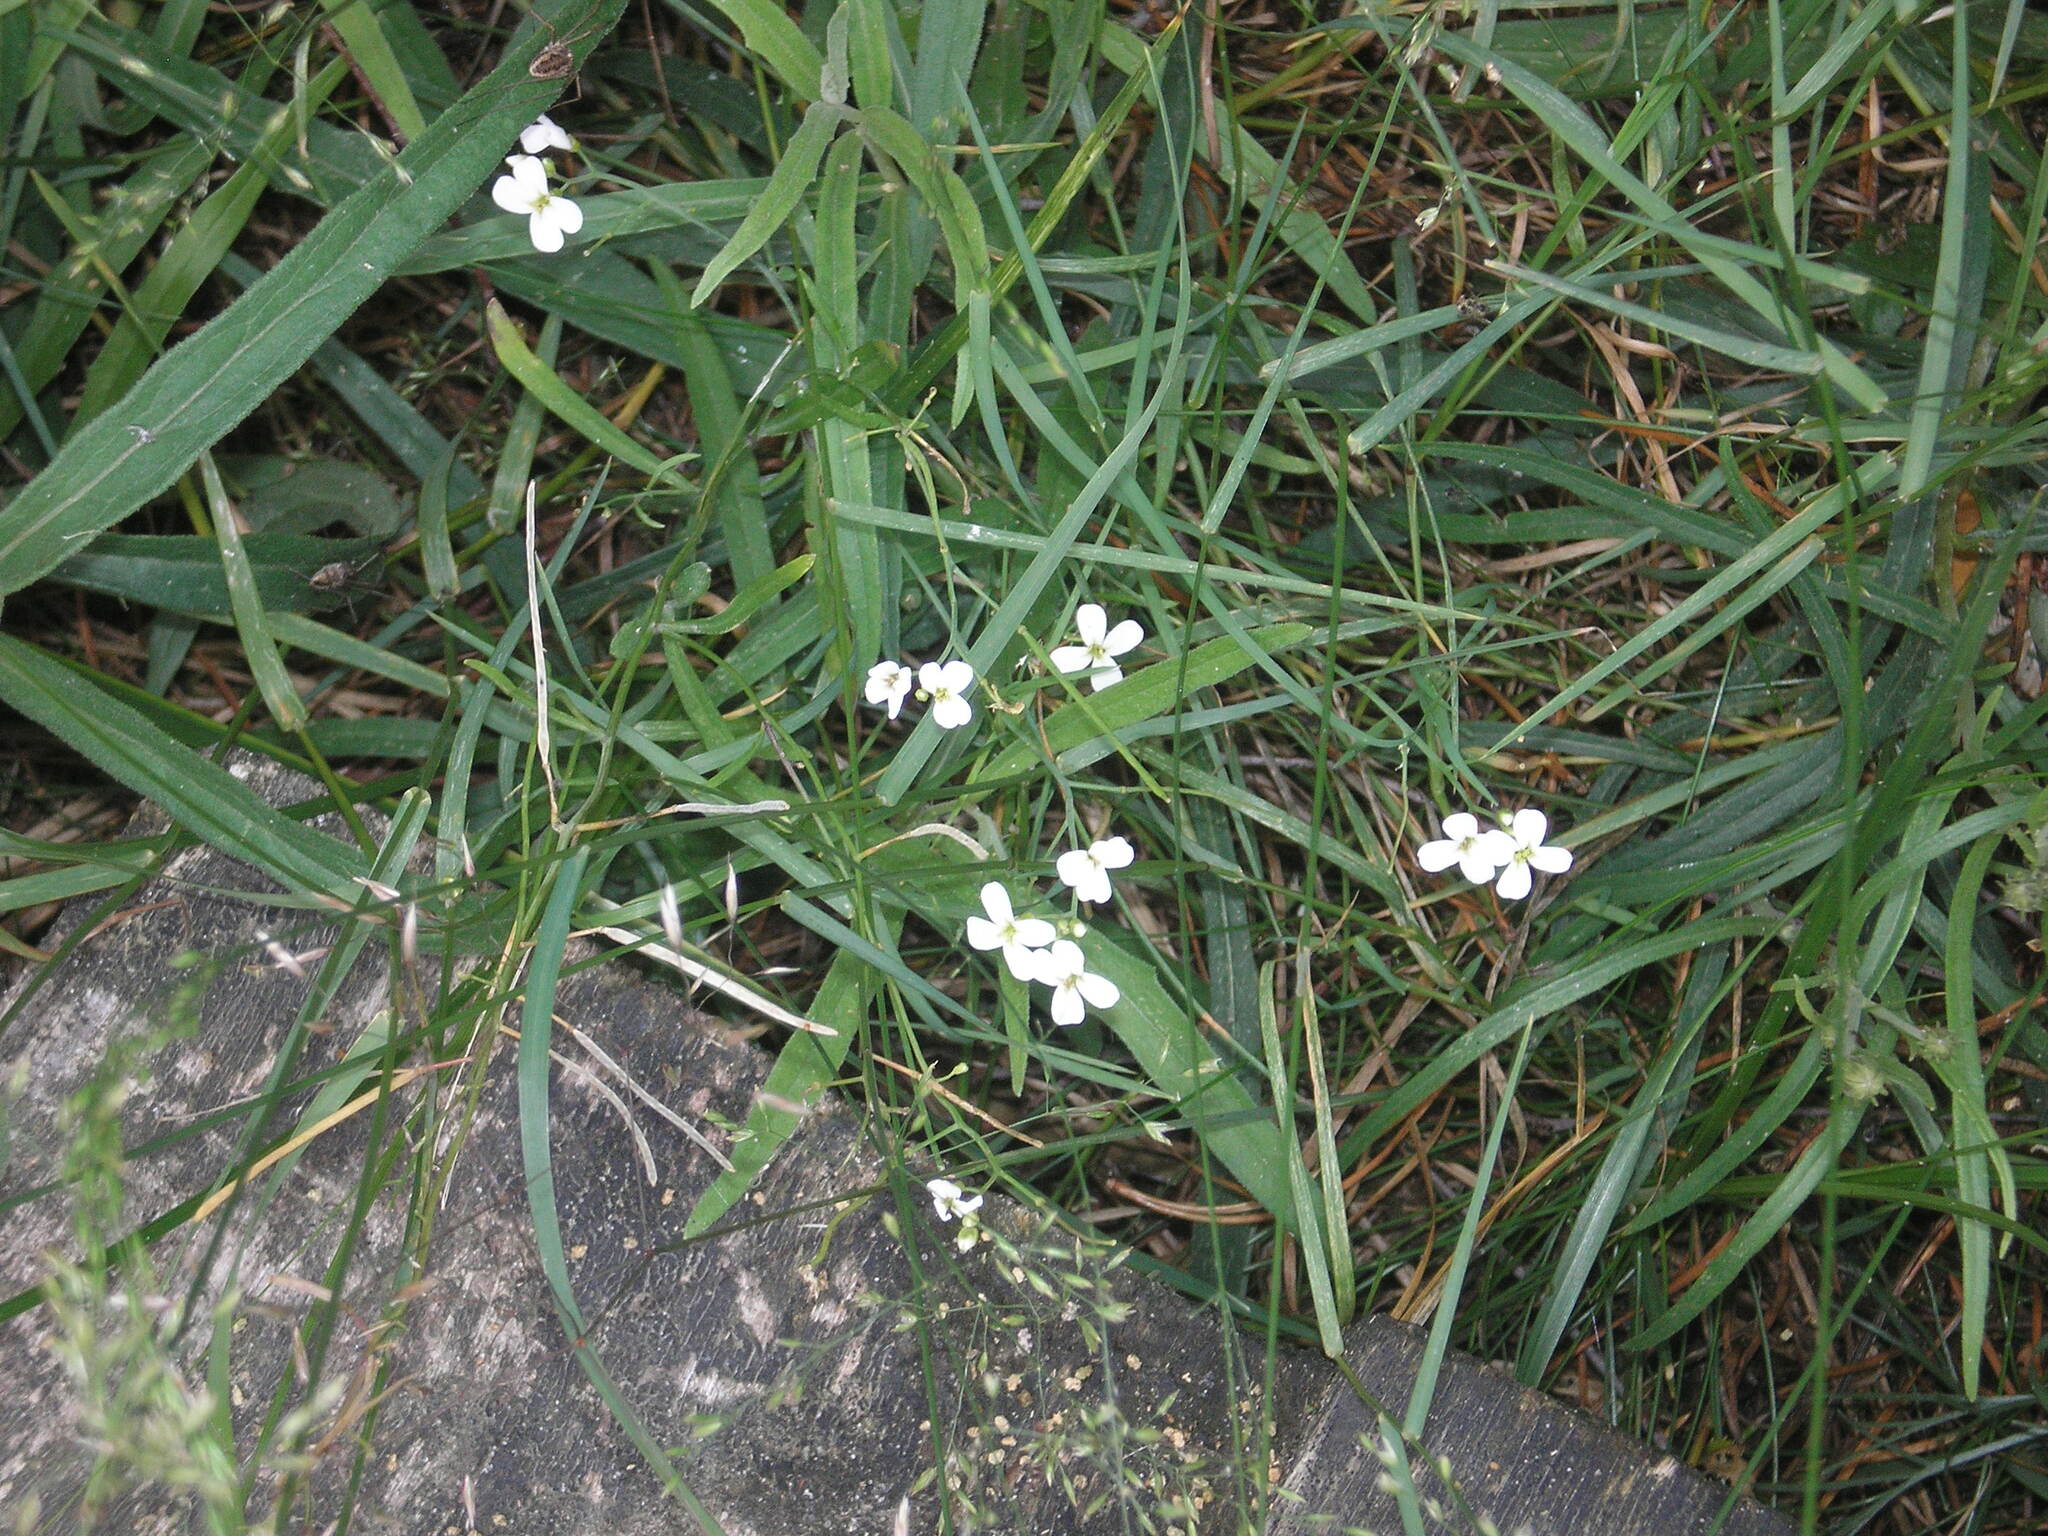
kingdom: Plantae
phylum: Tracheophyta
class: Magnoliopsida
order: Brassicales
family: Brassicaceae
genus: Arabidopsis
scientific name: Arabidopsis arenosa
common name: Sand rock-cress
